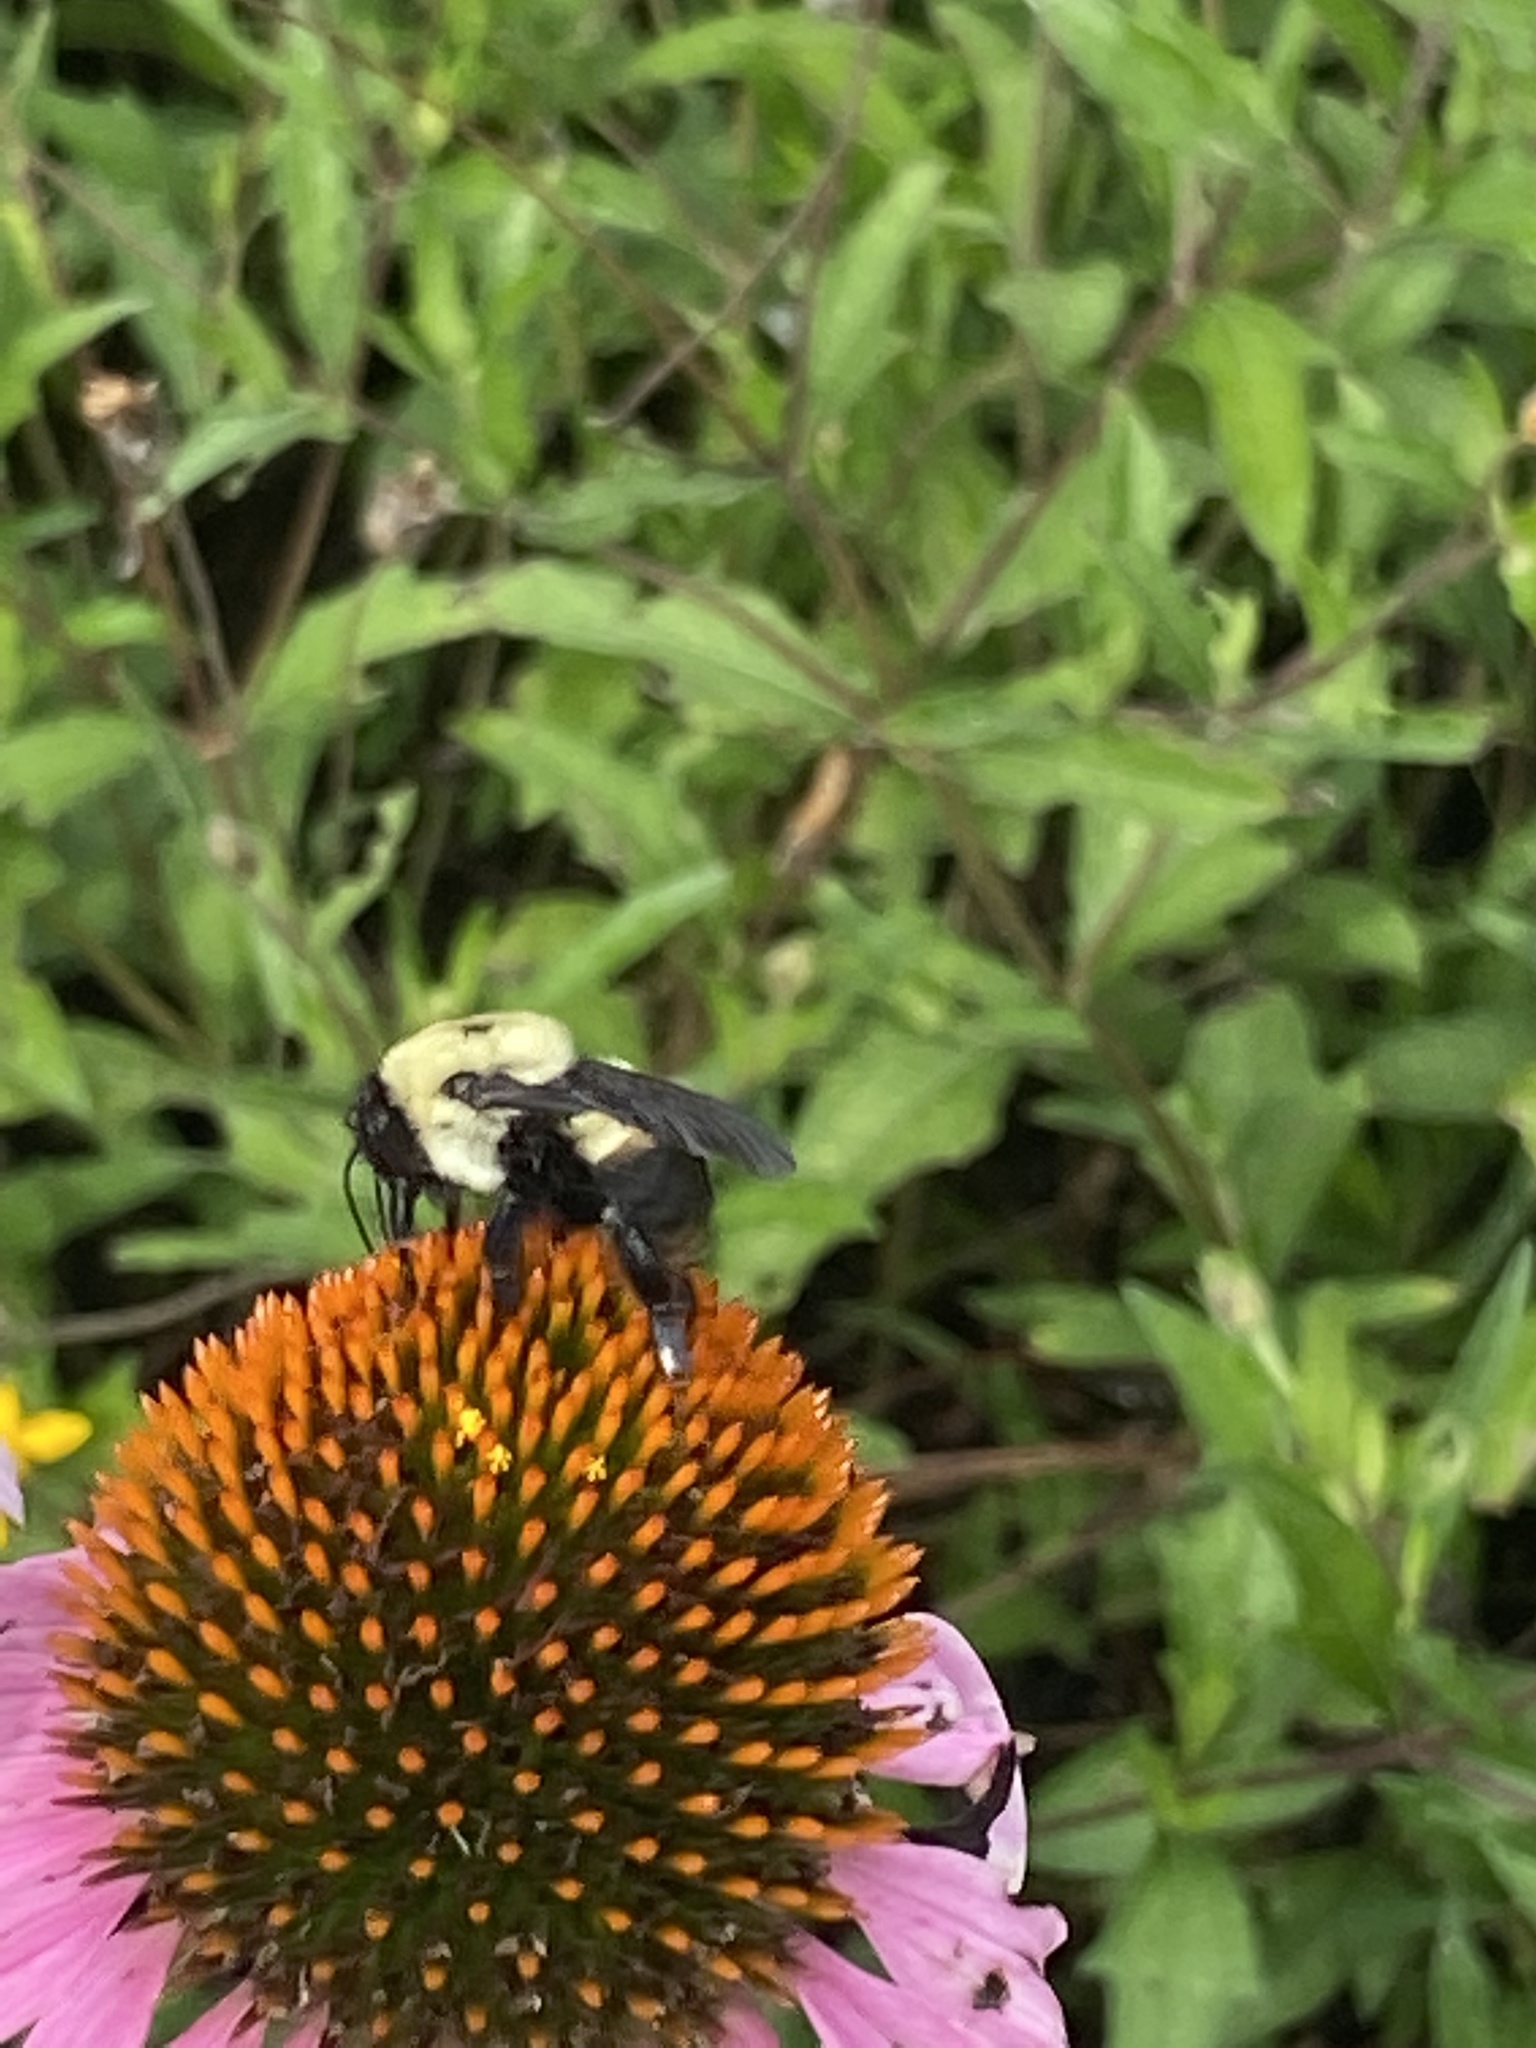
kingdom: Animalia
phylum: Arthropoda
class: Insecta
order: Hymenoptera
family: Apidae
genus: Bombus
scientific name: Bombus griseocollis
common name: Brown-belted bumble bee
